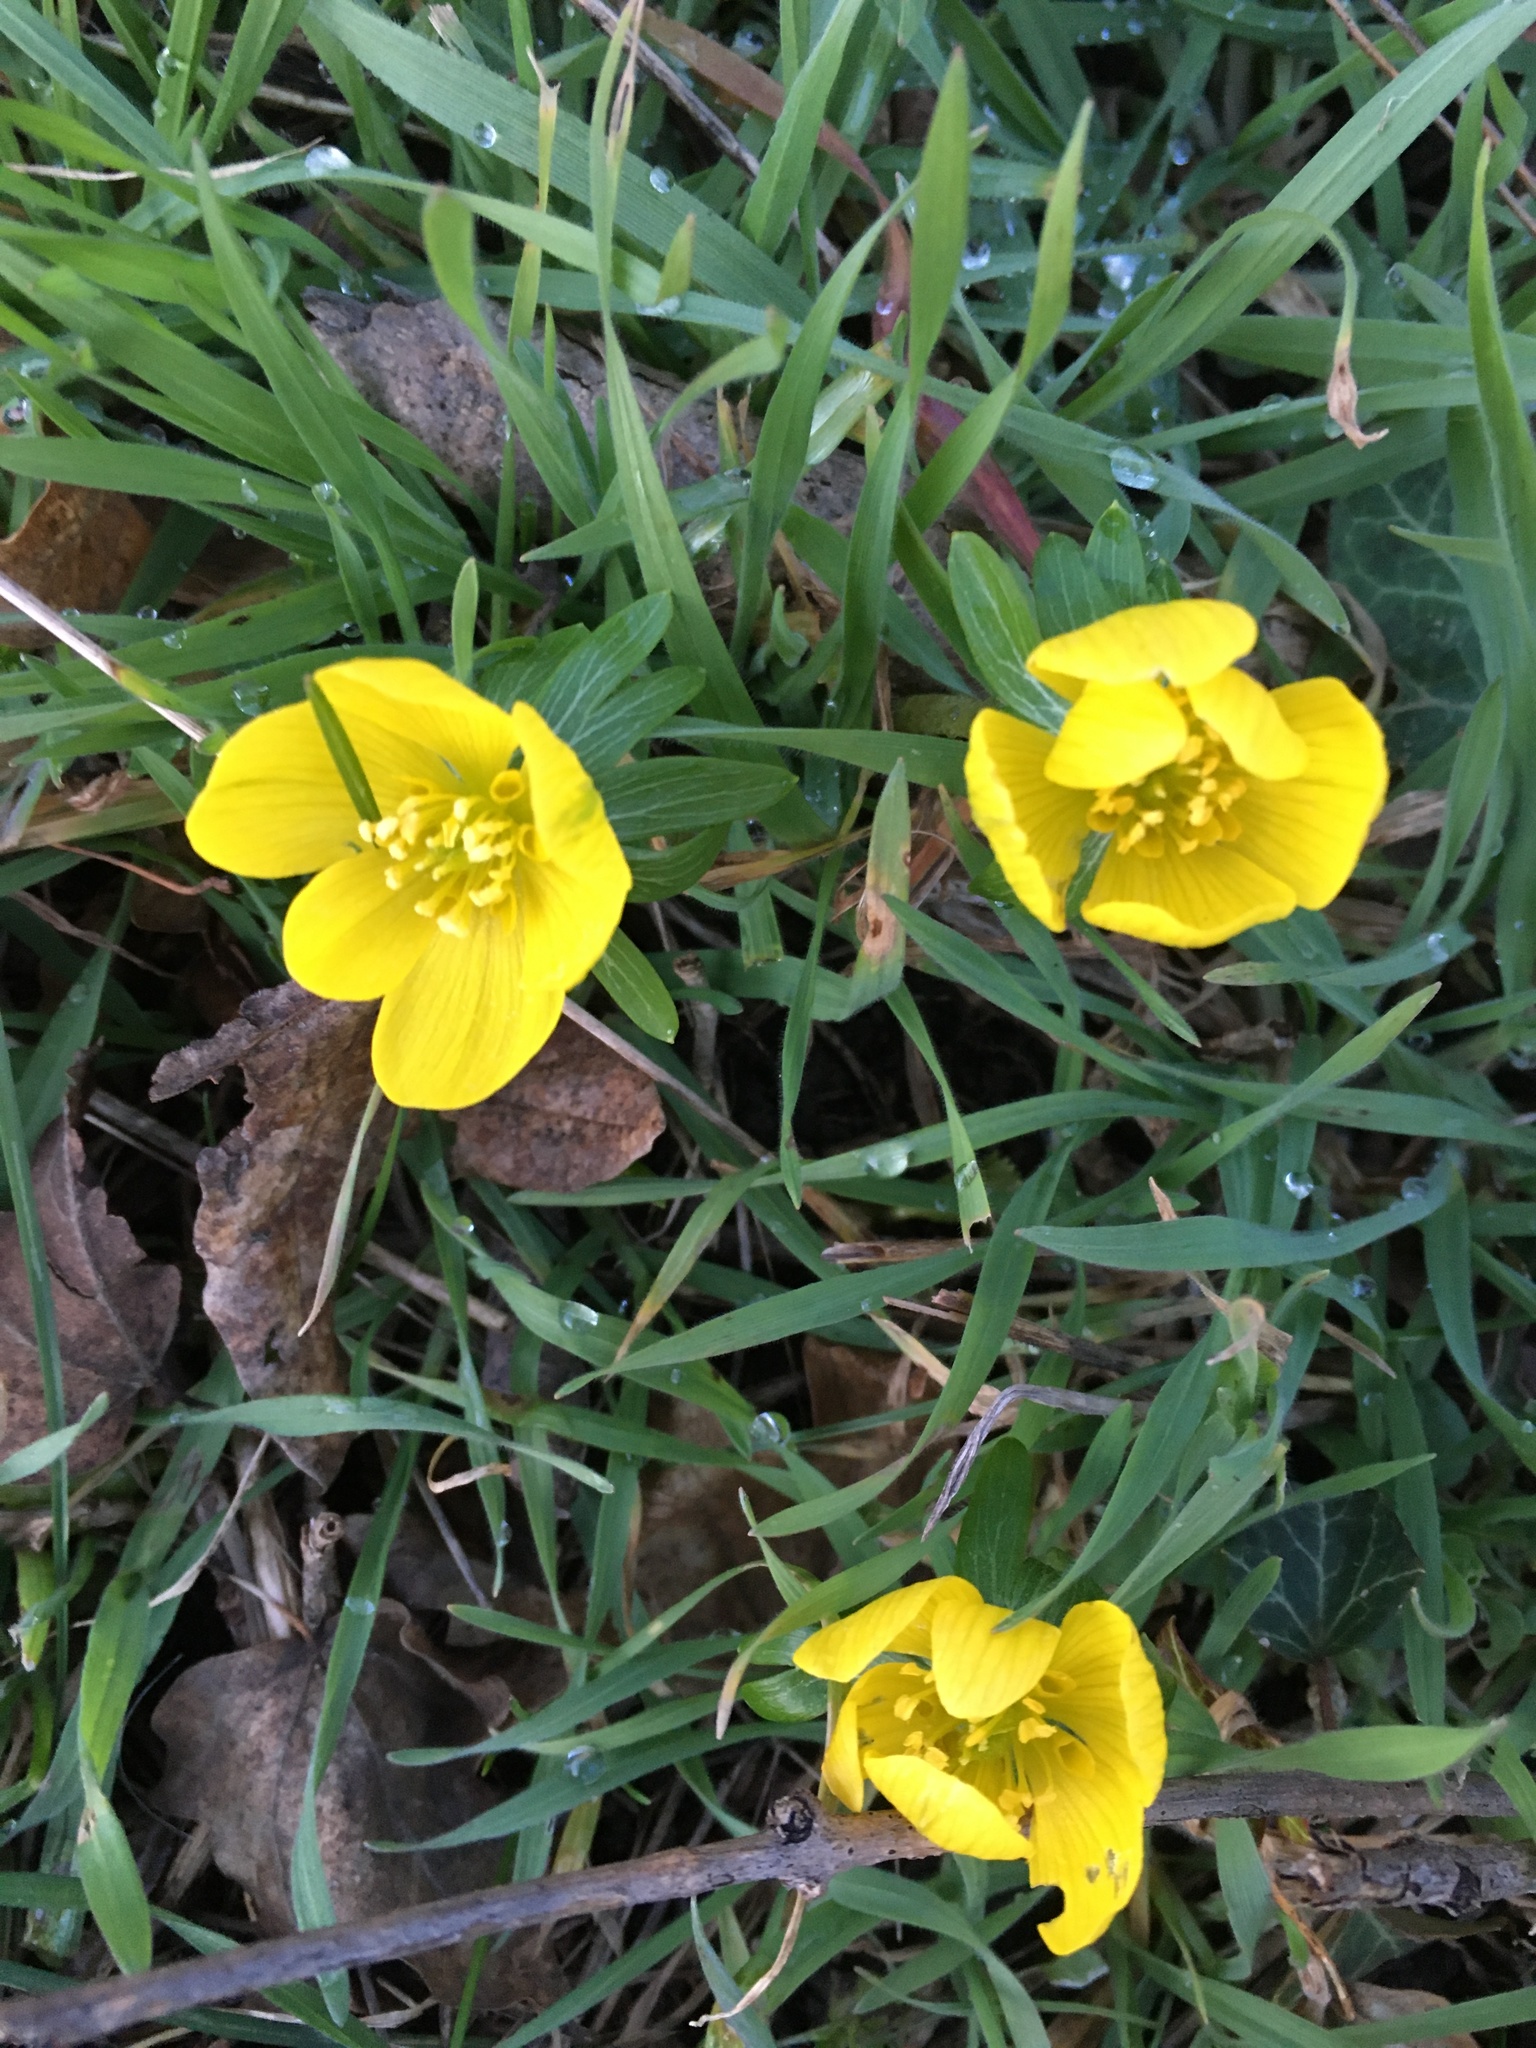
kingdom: Plantae
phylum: Tracheophyta
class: Magnoliopsida
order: Ranunculales
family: Ranunculaceae
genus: Eranthis
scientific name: Eranthis hyemalis
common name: Winter aconite
